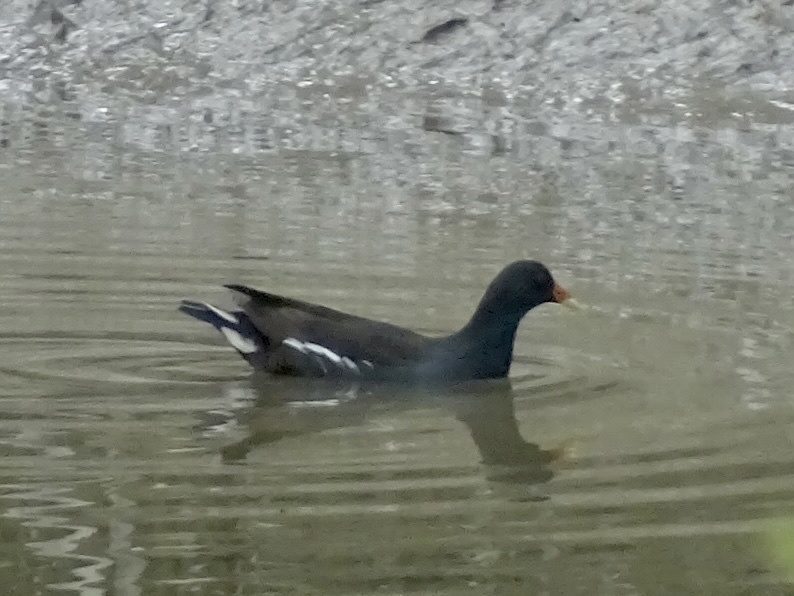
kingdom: Animalia
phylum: Chordata
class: Aves
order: Gruiformes
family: Rallidae
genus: Gallinula
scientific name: Gallinula chloropus
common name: Common moorhen
